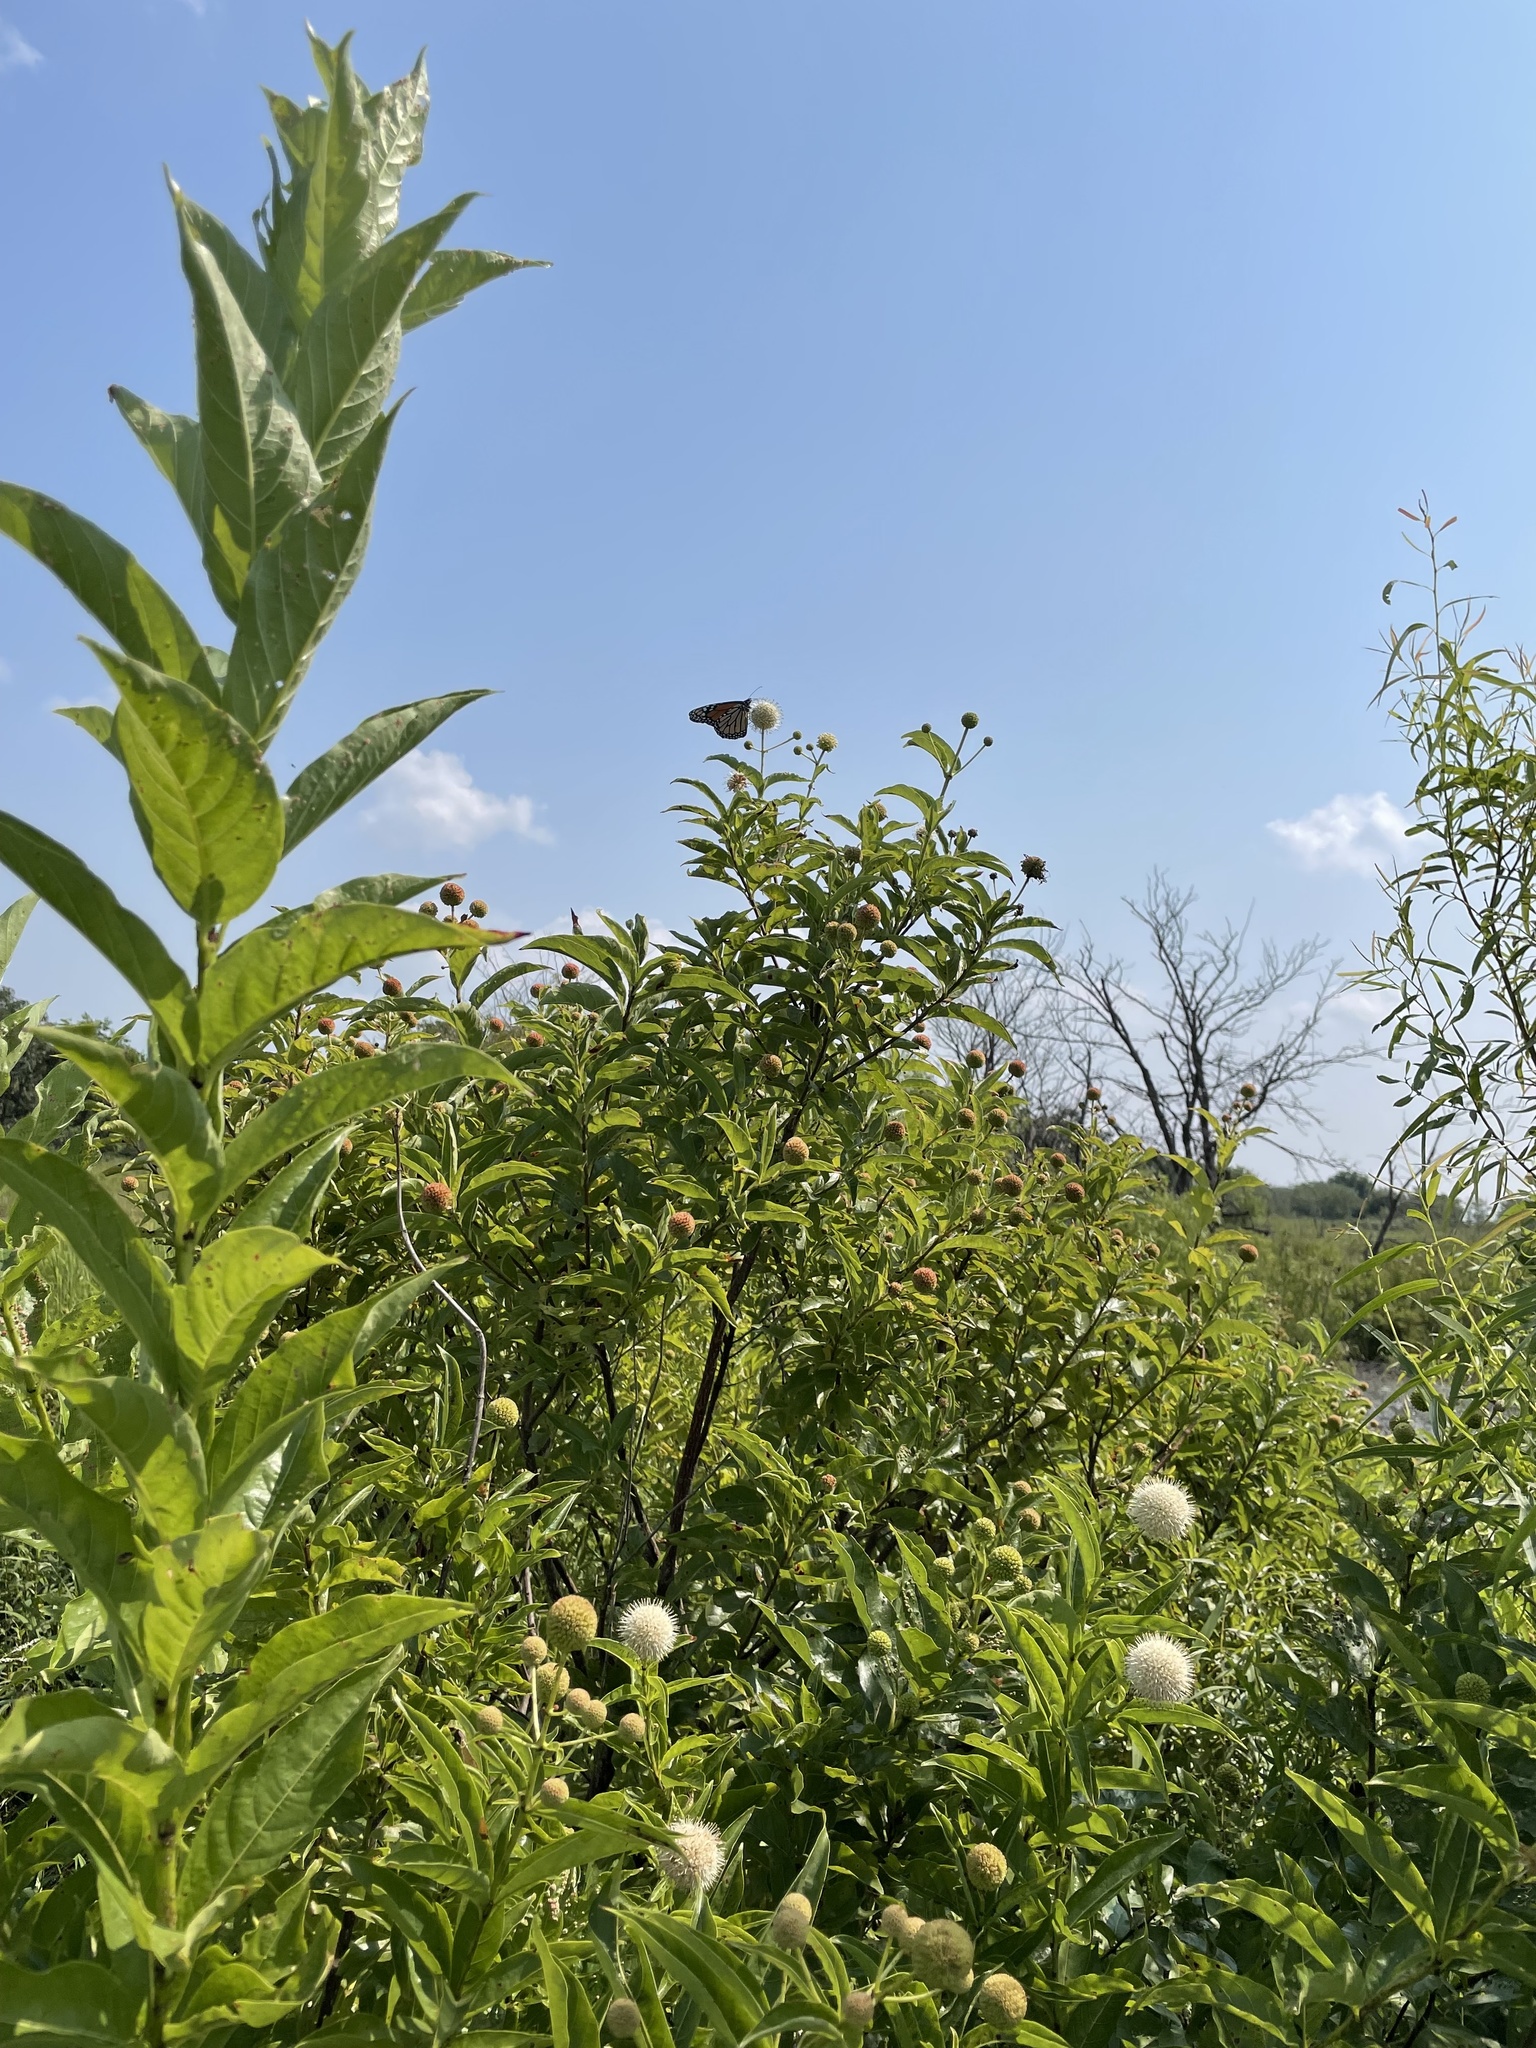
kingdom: Animalia
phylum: Arthropoda
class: Insecta
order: Lepidoptera
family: Nymphalidae
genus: Danaus
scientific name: Danaus plexippus
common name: Monarch
